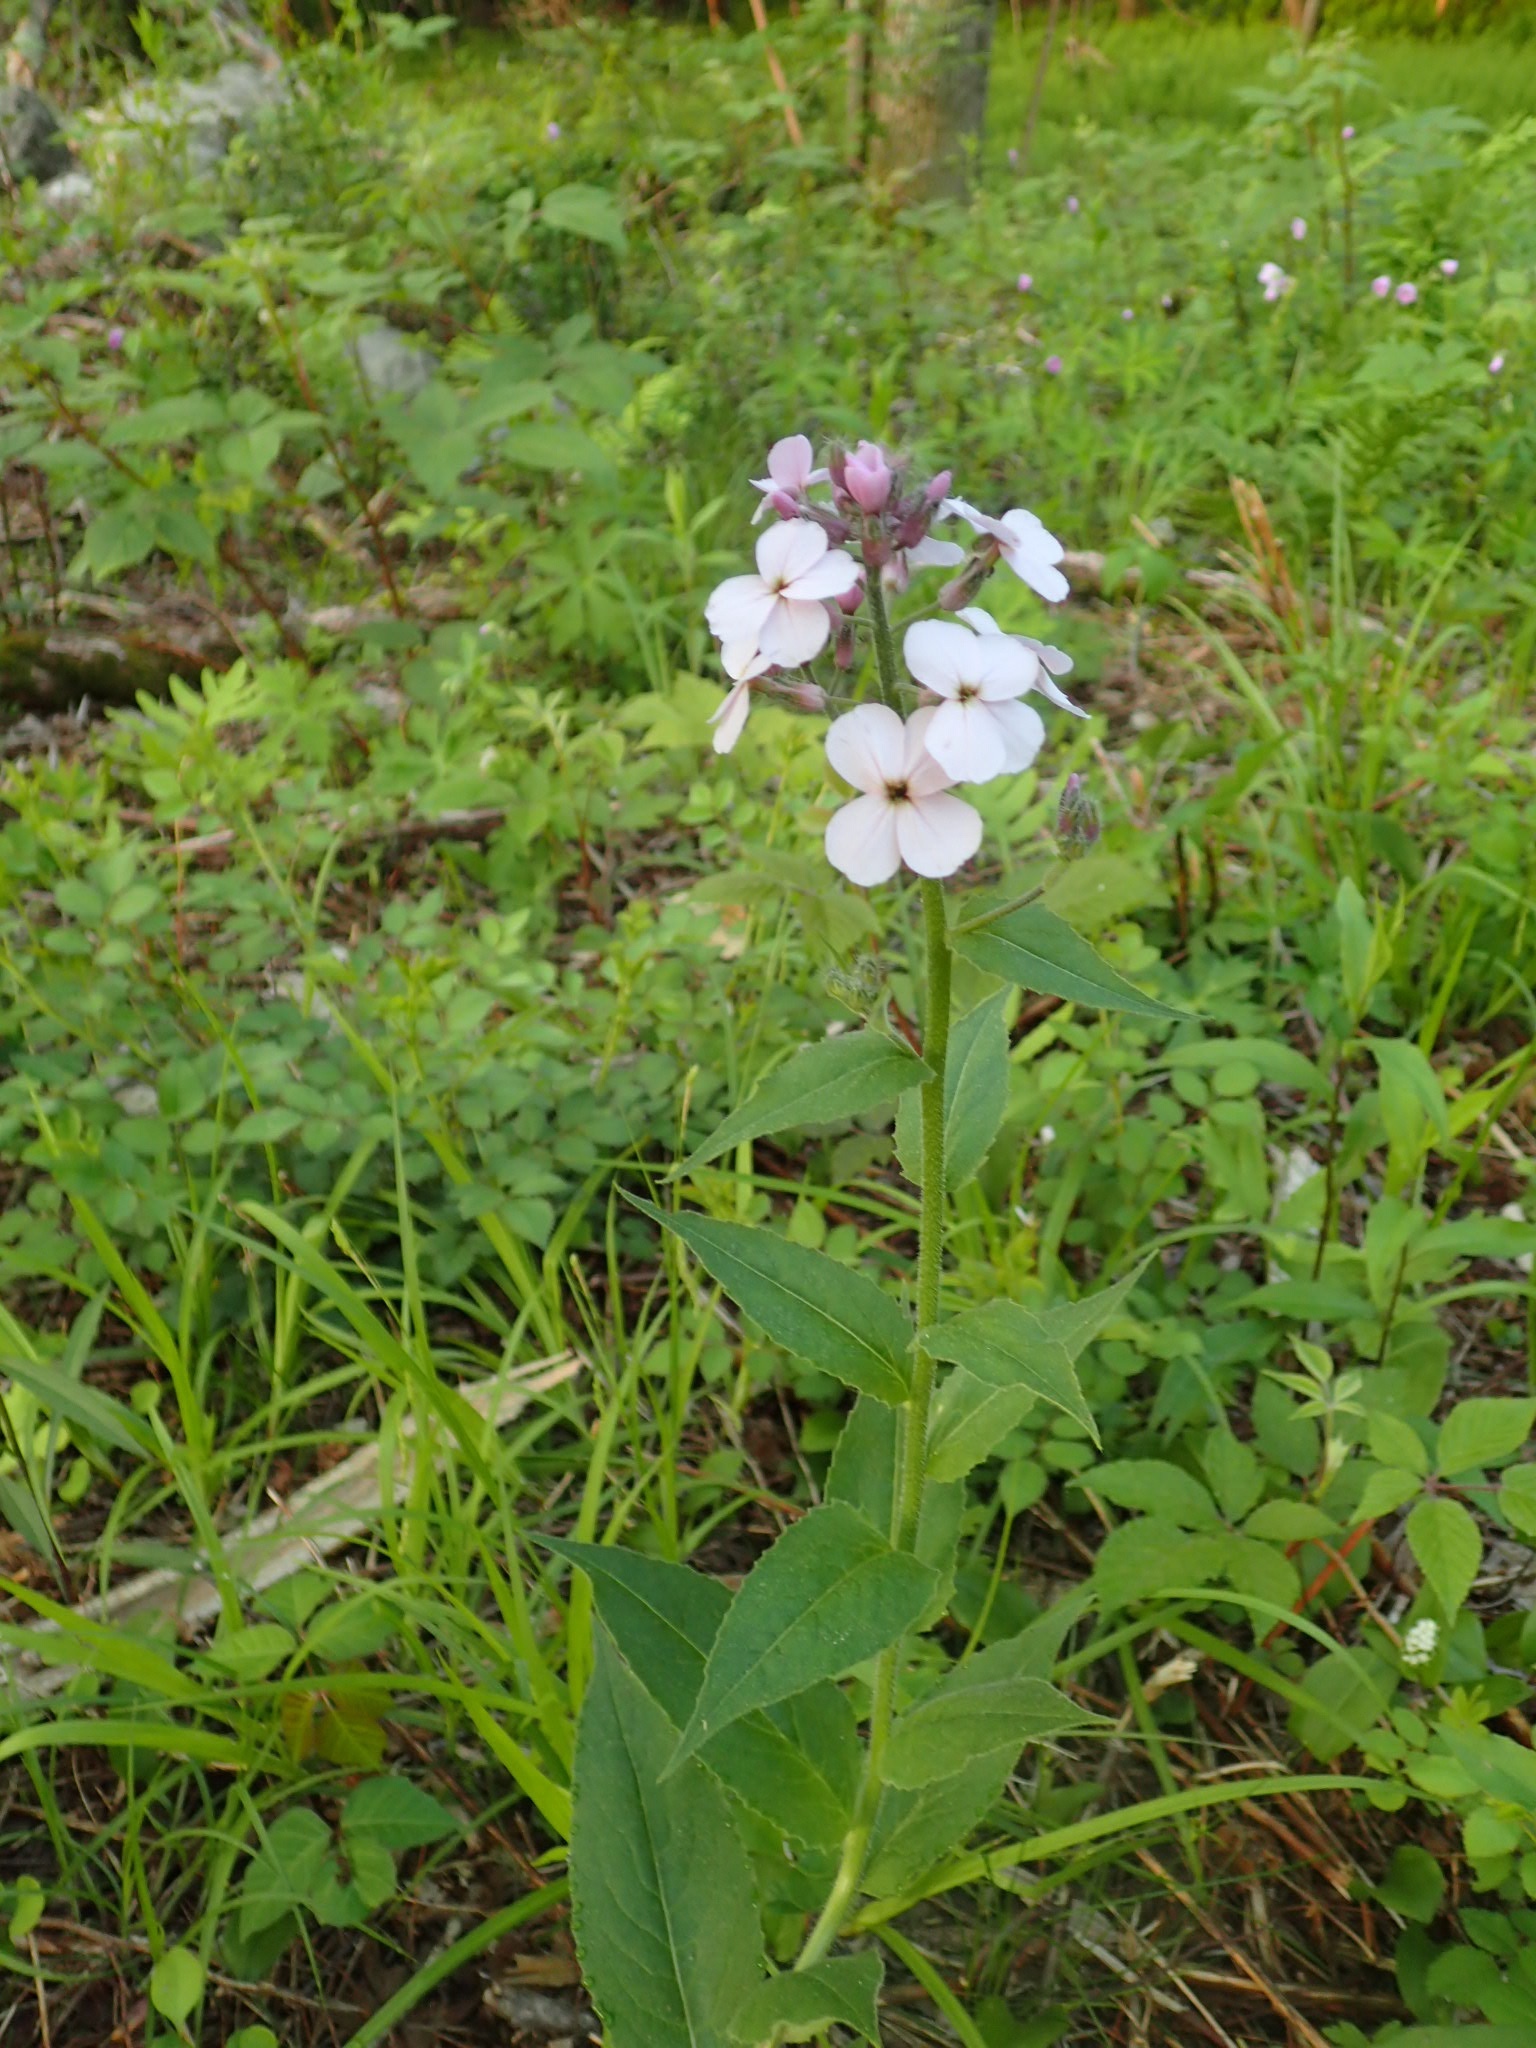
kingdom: Plantae
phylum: Tracheophyta
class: Magnoliopsida
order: Brassicales
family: Brassicaceae
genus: Hesperis
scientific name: Hesperis matronalis
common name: Dame's-violet
